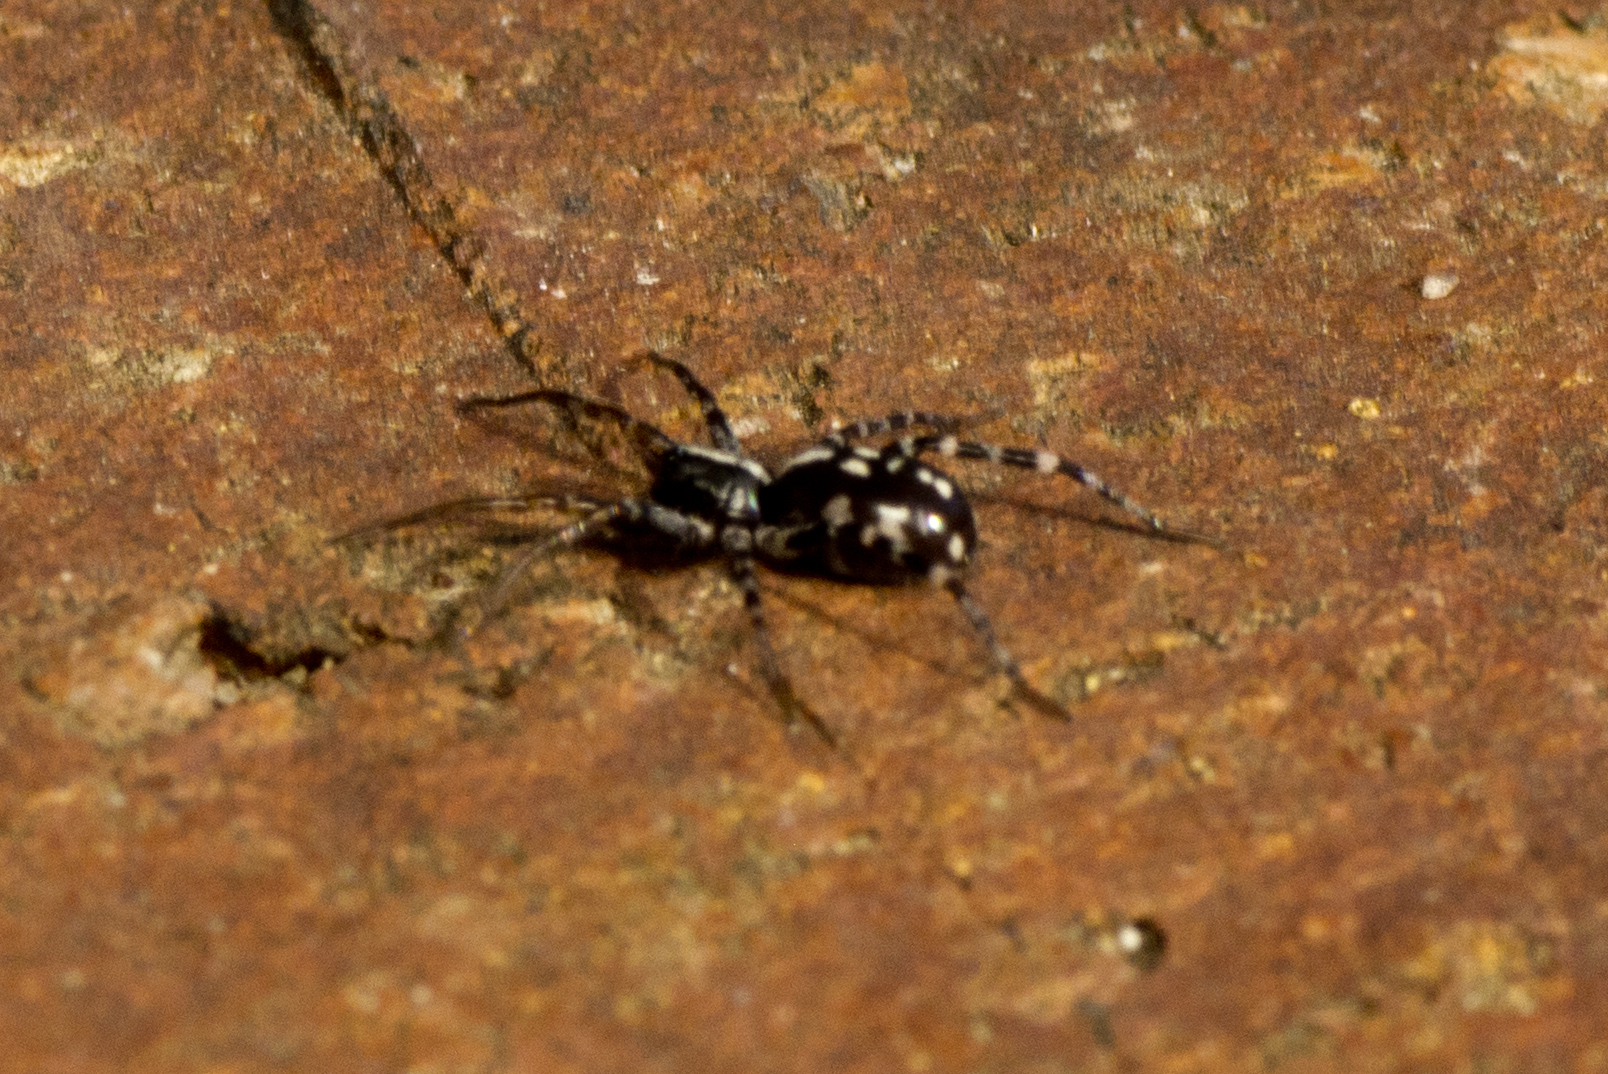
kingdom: Animalia
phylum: Arthropoda
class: Arachnida
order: Araneae
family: Corinnidae
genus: Nyssus
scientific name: Nyssus coloripes
